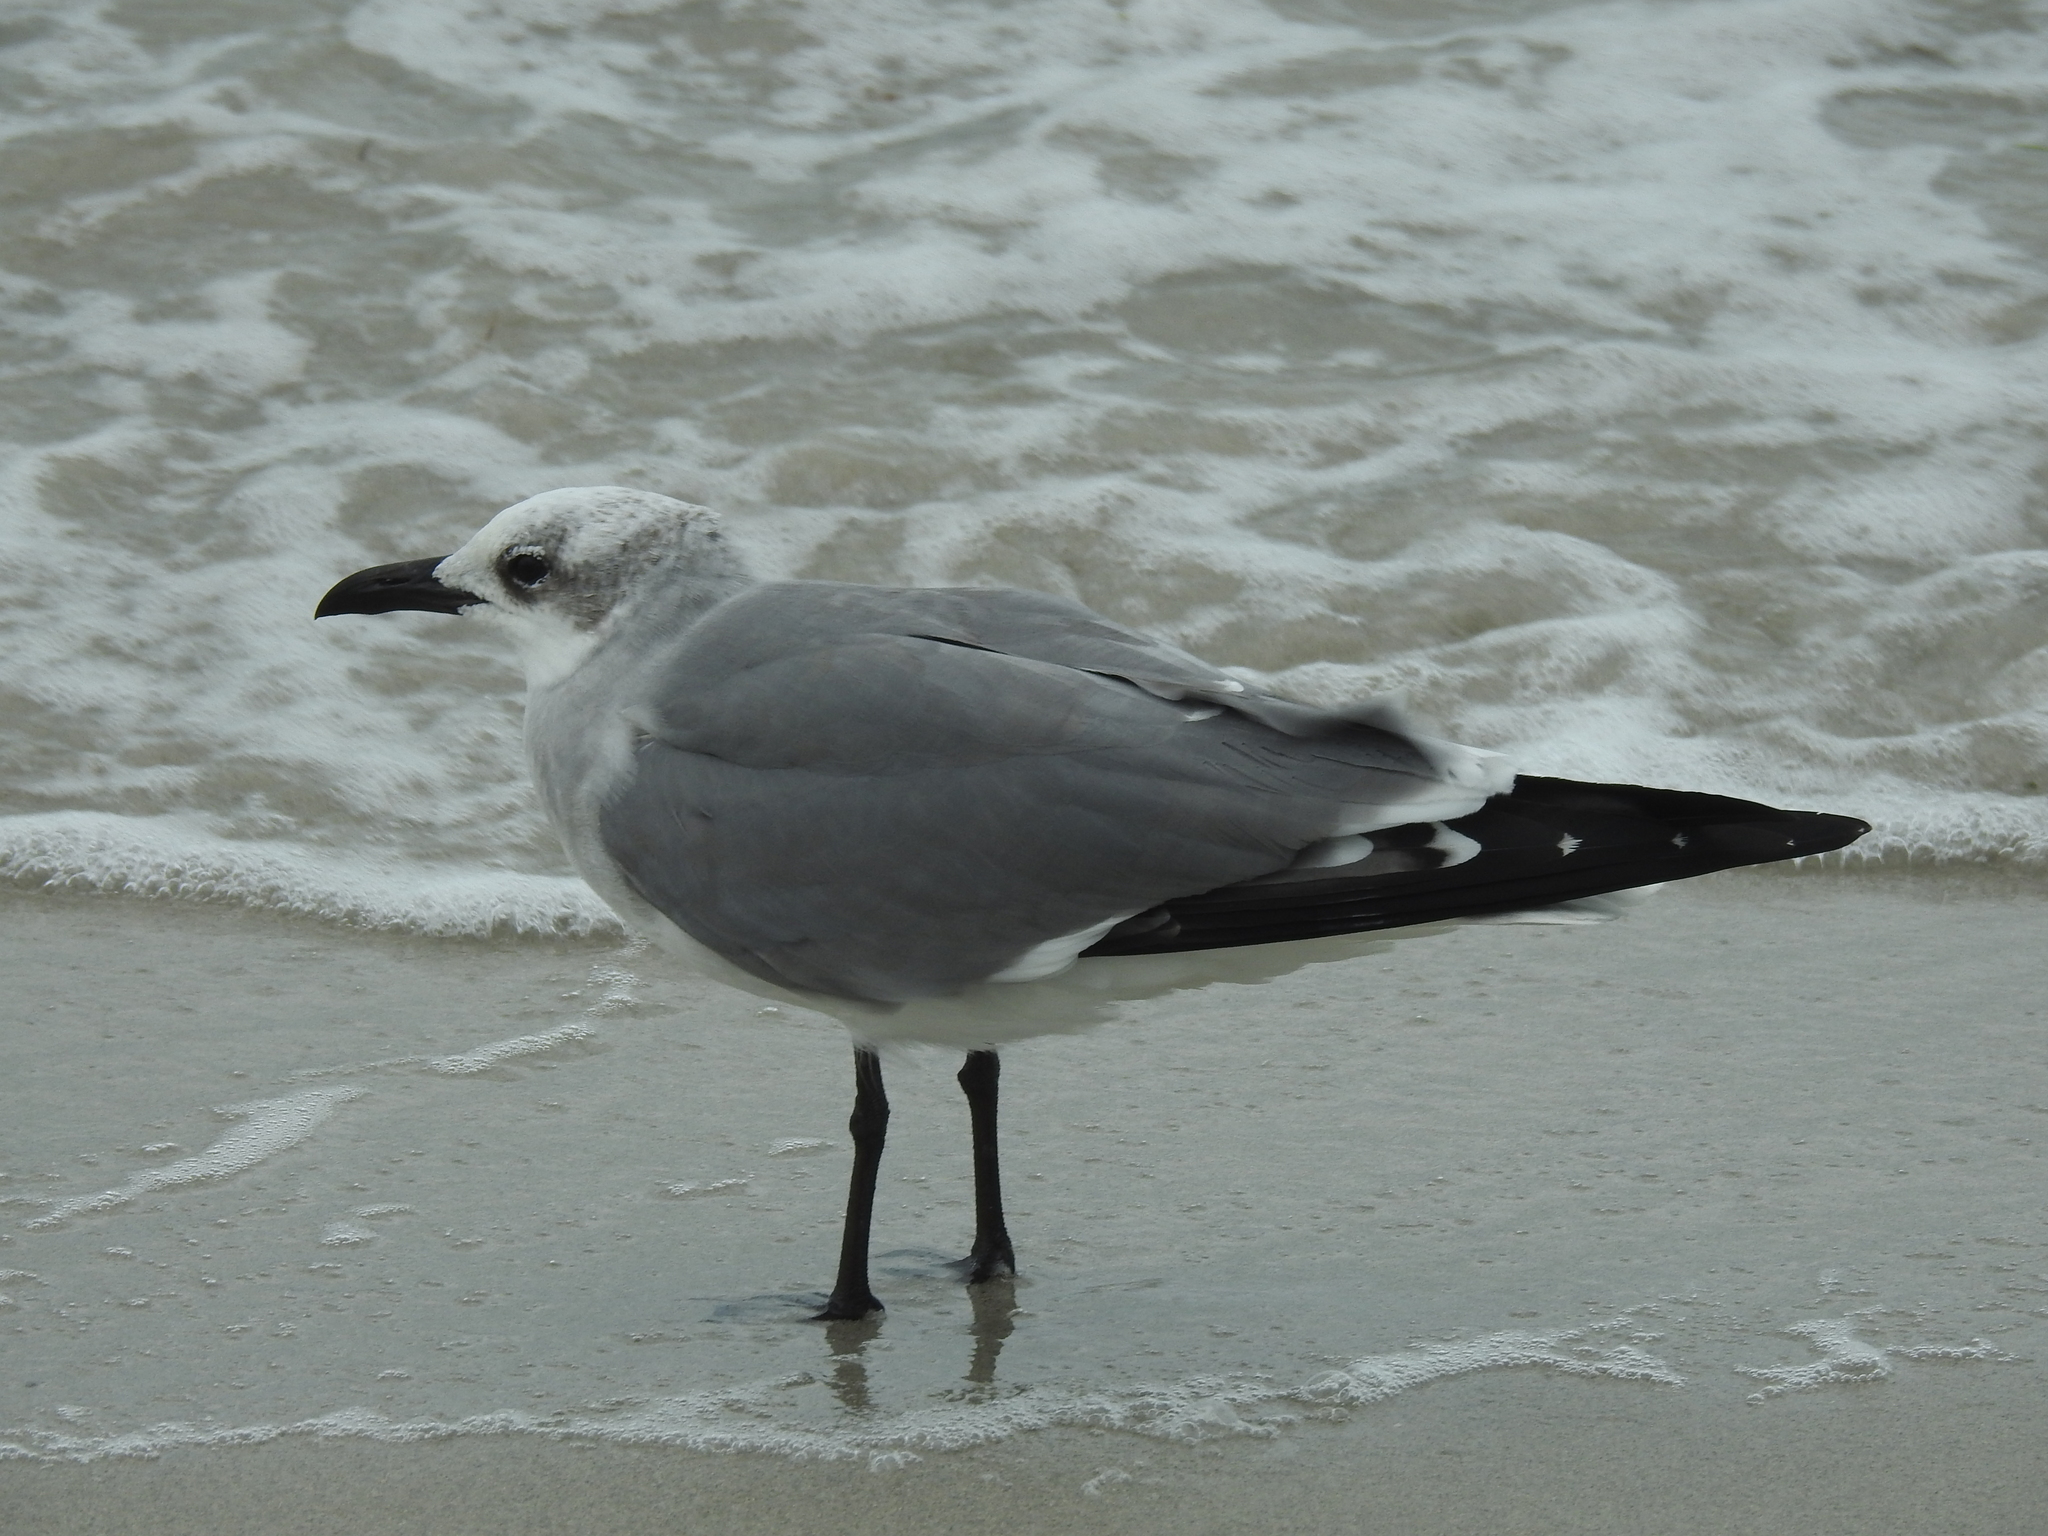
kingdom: Animalia
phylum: Chordata
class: Aves
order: Charadriiformes
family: Laridae
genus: Leucophaeus
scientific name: Leucophaeus atricilla
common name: Laughing gull
